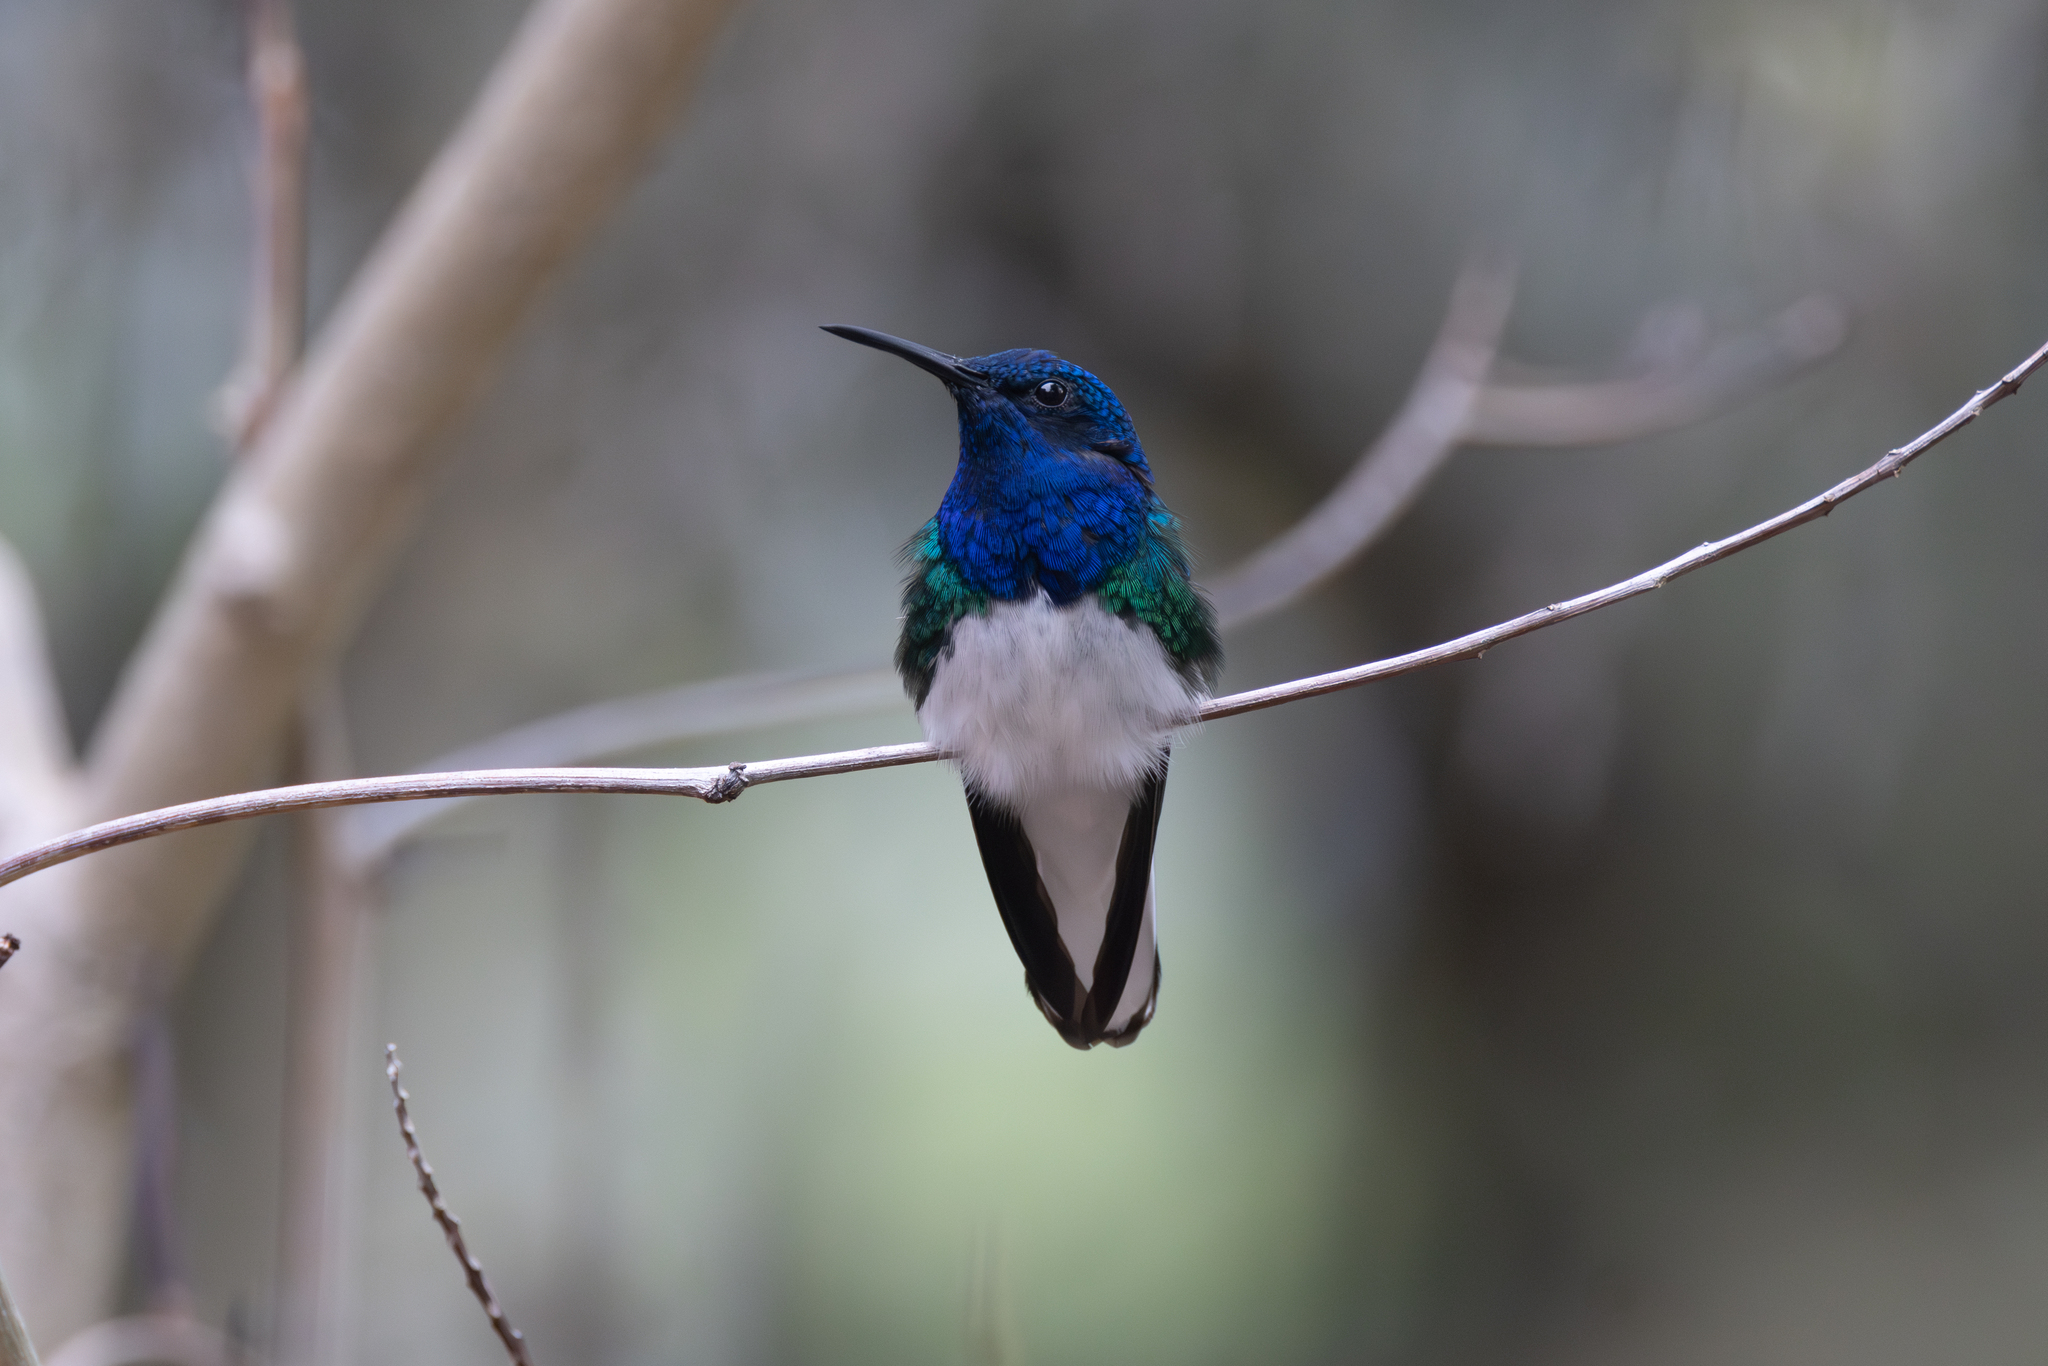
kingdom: Animalia
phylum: Chordata
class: Aves
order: Apodiformes
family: Trochilidae
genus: Florisuga
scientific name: Florisuga mellivora
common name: White-necked jacobin
